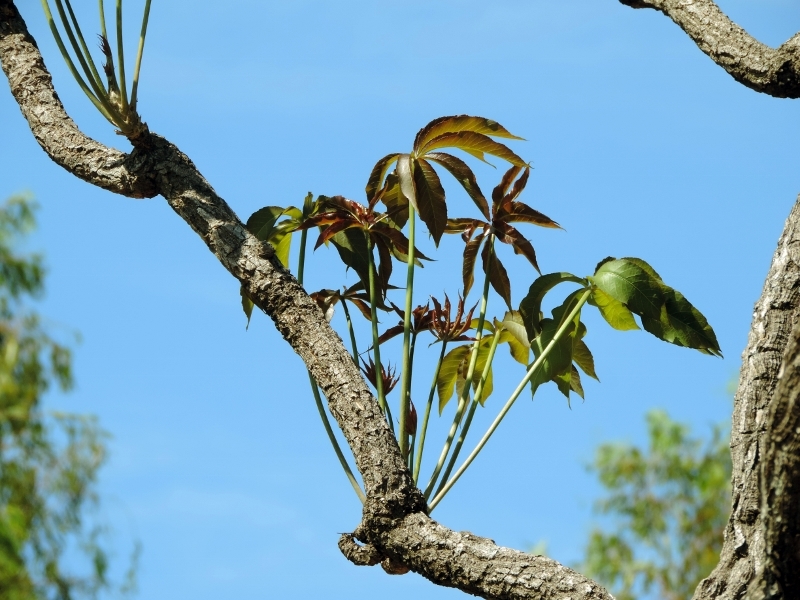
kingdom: Plantae
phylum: Tracheophyta
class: Magnoliopsida
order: Apiales
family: Araliaceae
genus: Cussonia
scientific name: Cussonia arborea
